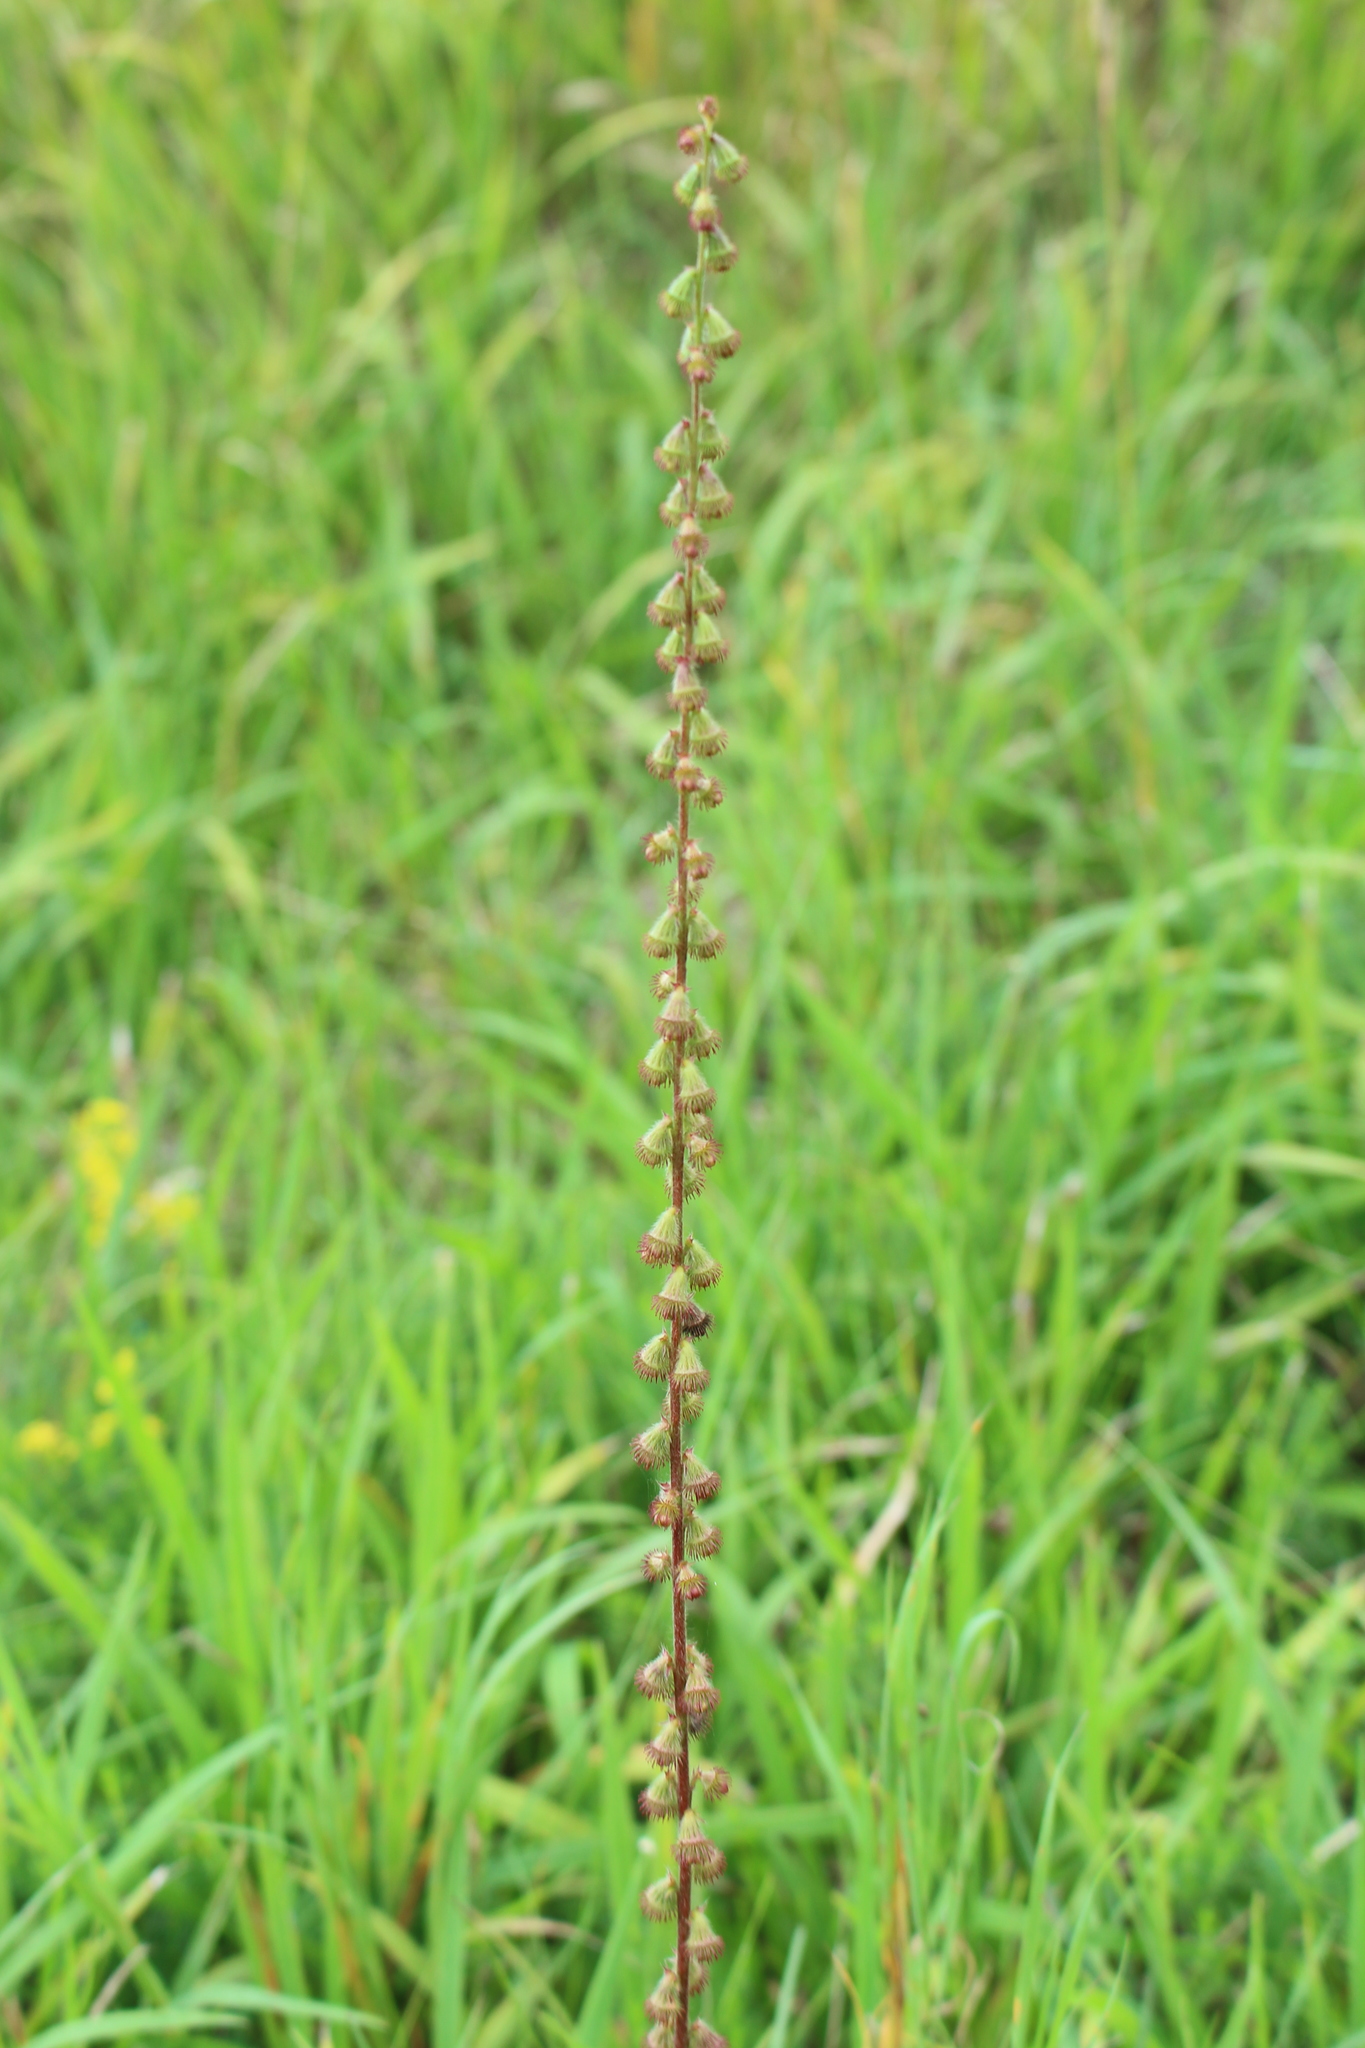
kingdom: Plantae
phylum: Tracheophyta
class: Magnoliopsida
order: Rosales
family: Rosaceae
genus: Agrimonia
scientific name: Agrimonia eupatoria
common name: Agrimony
